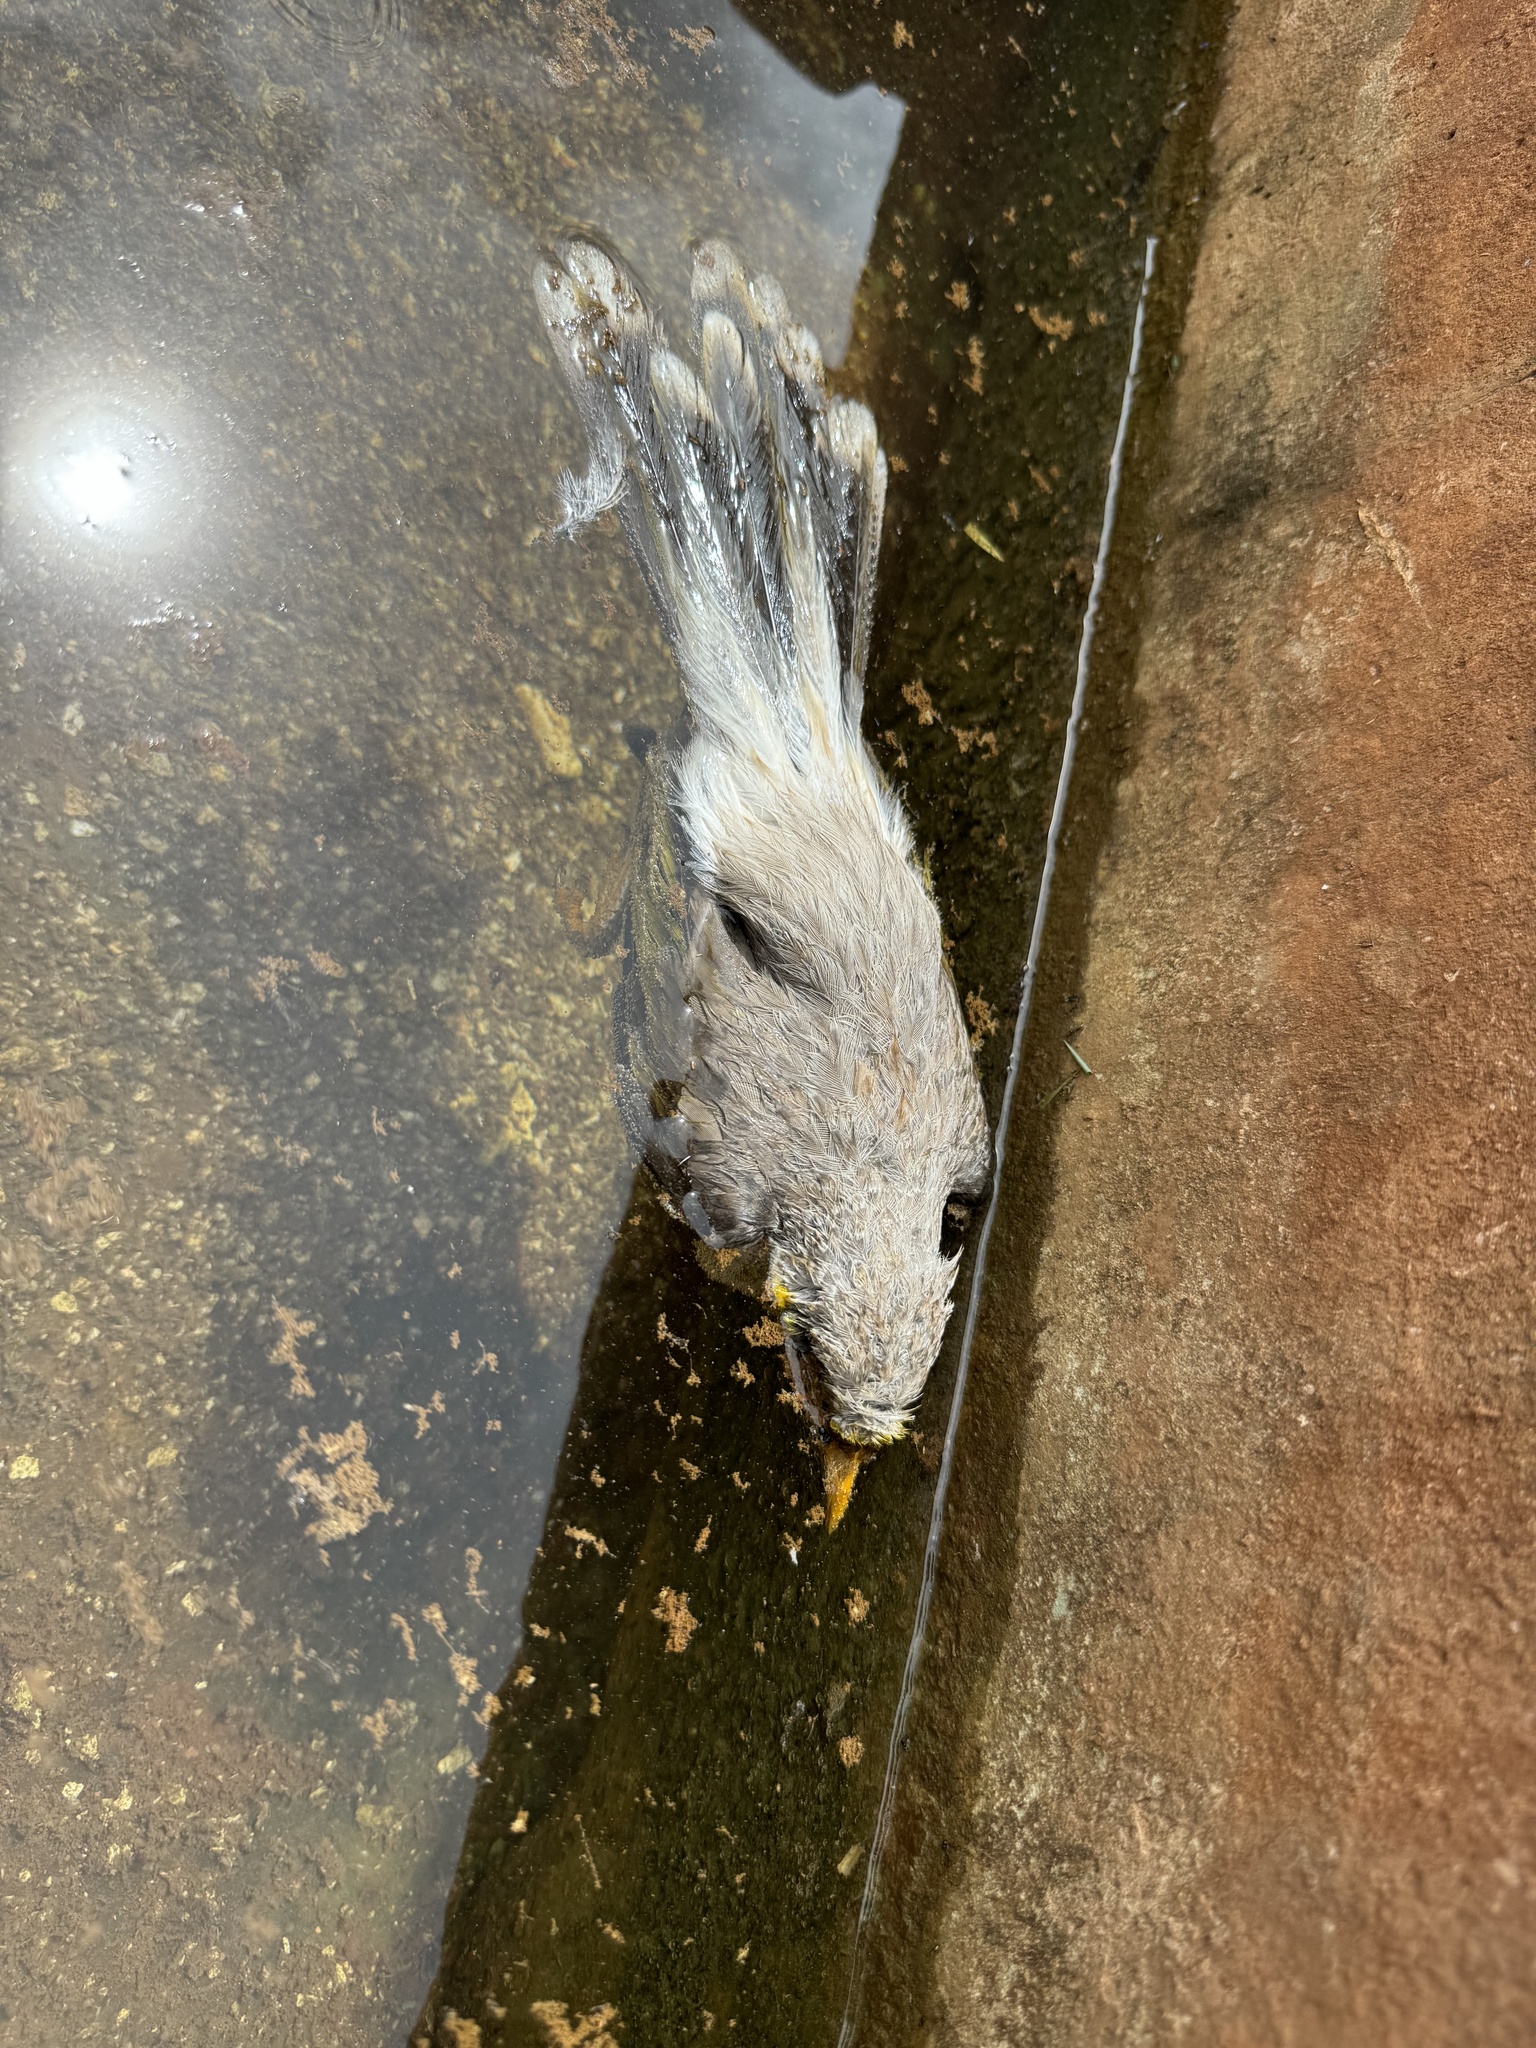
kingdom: Animalia
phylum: Chordata
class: Aves
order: Passeriformes
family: Meliphagidae
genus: Manorina
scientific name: Manorina flavigula
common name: Yellow-throated miner
